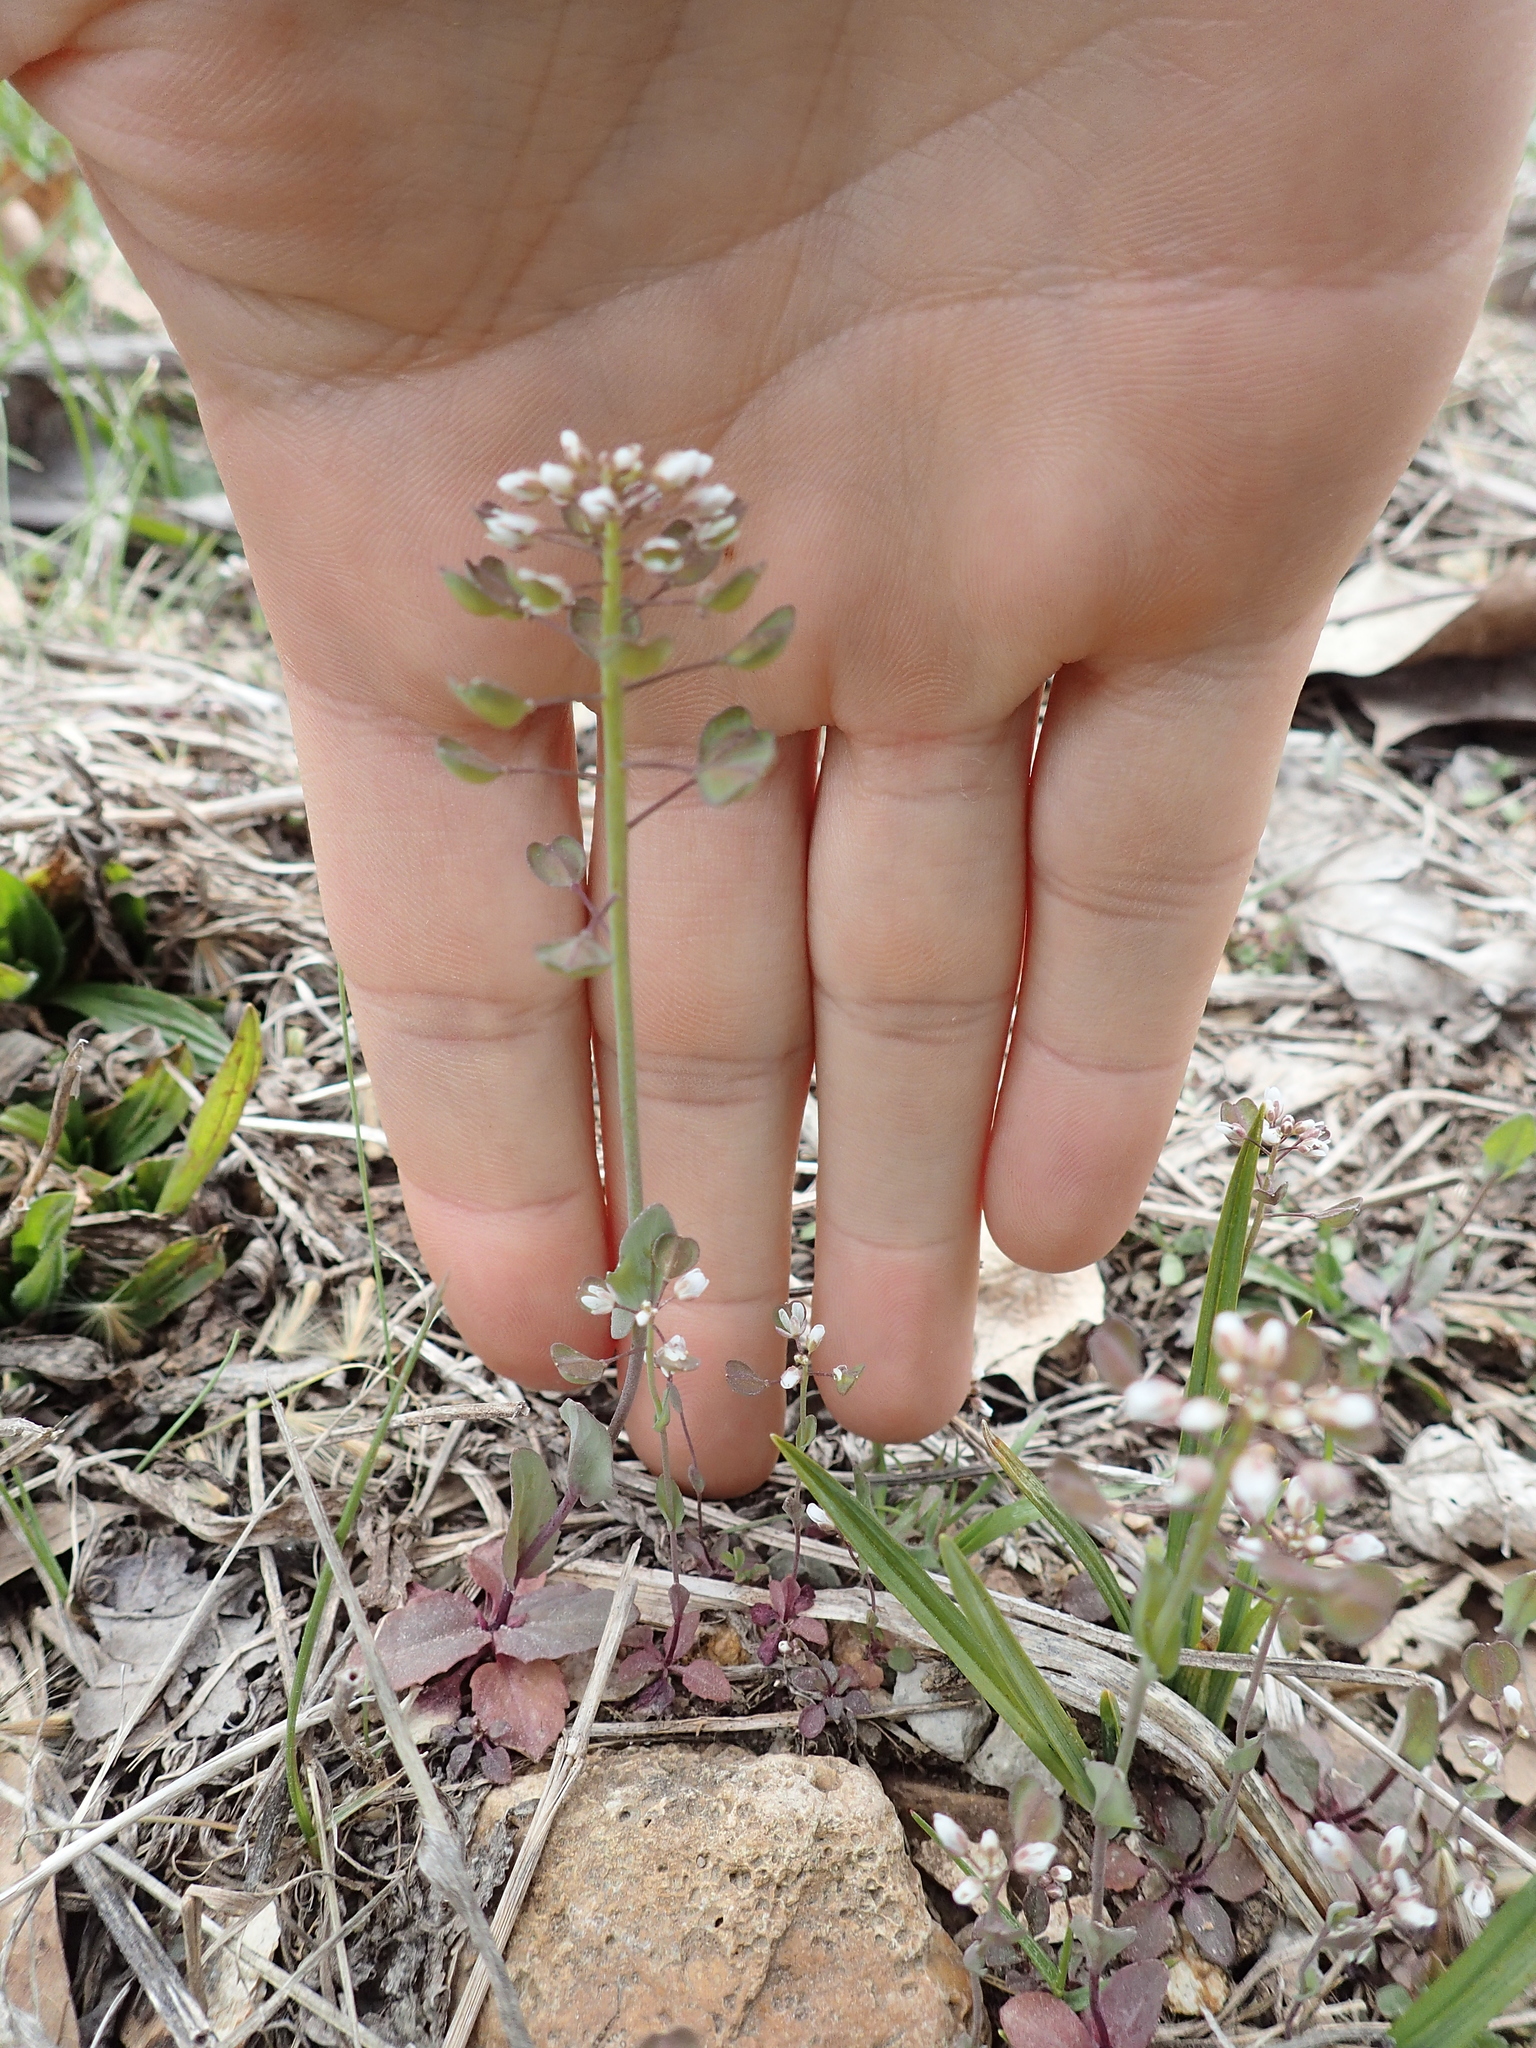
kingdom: Plantae
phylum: Tracheophyta
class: Magnoliopsida
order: Brassicales
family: Brassicaceae
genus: Capsella
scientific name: Capsella bursa-pastoris
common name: Shepherd's purse
